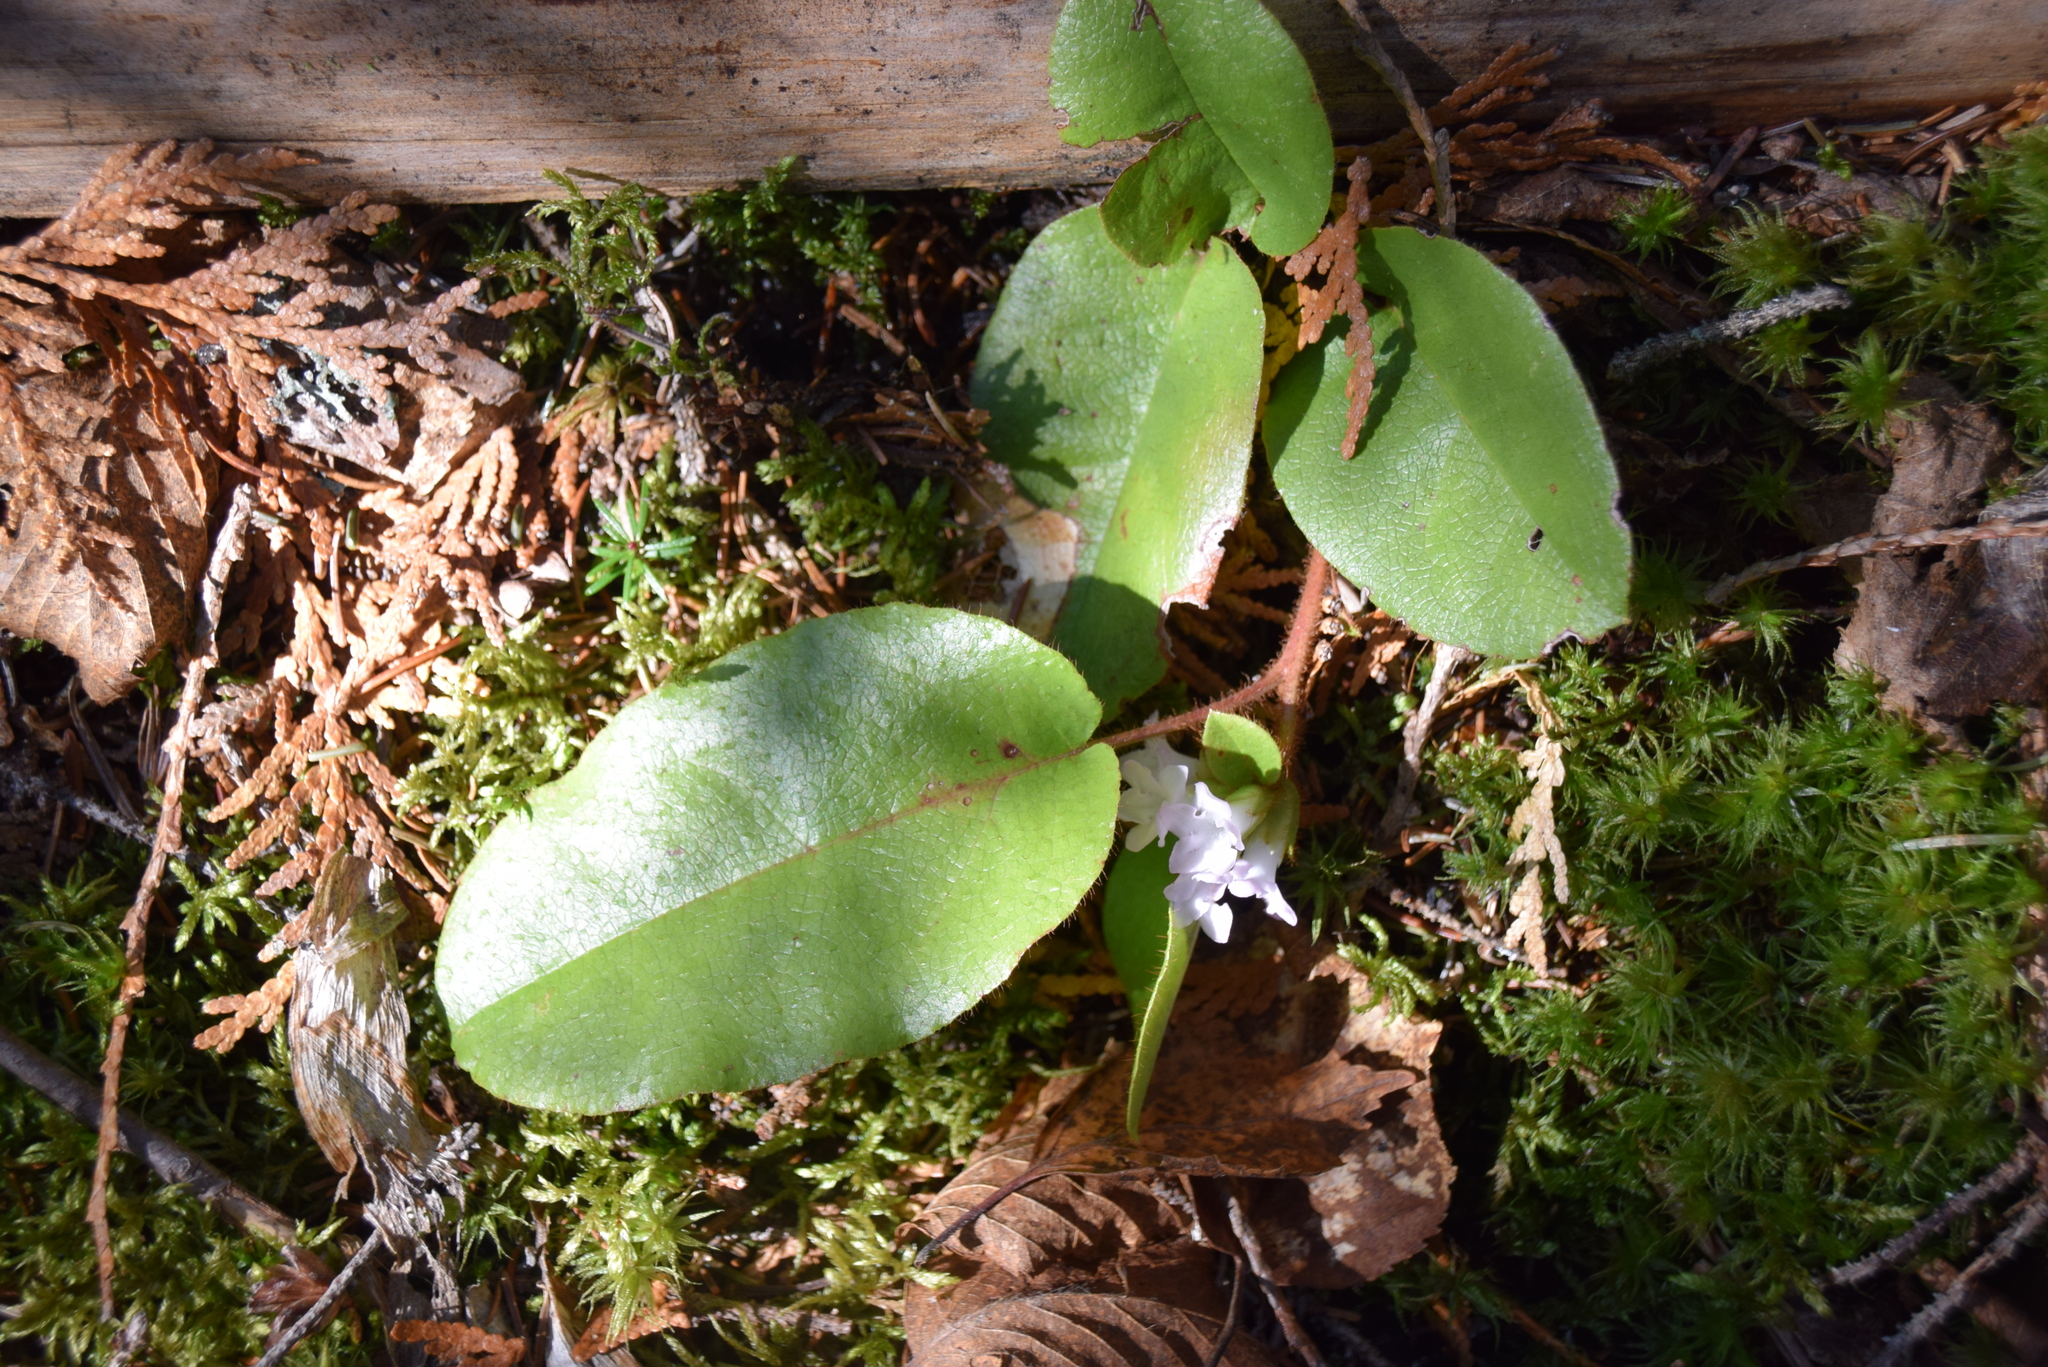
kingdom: Plantae
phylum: Tracheophyta
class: Magnoliopsida
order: Ericales
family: Ericaceae
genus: Epigaea
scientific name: Epigaea repens
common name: Gravelroot
